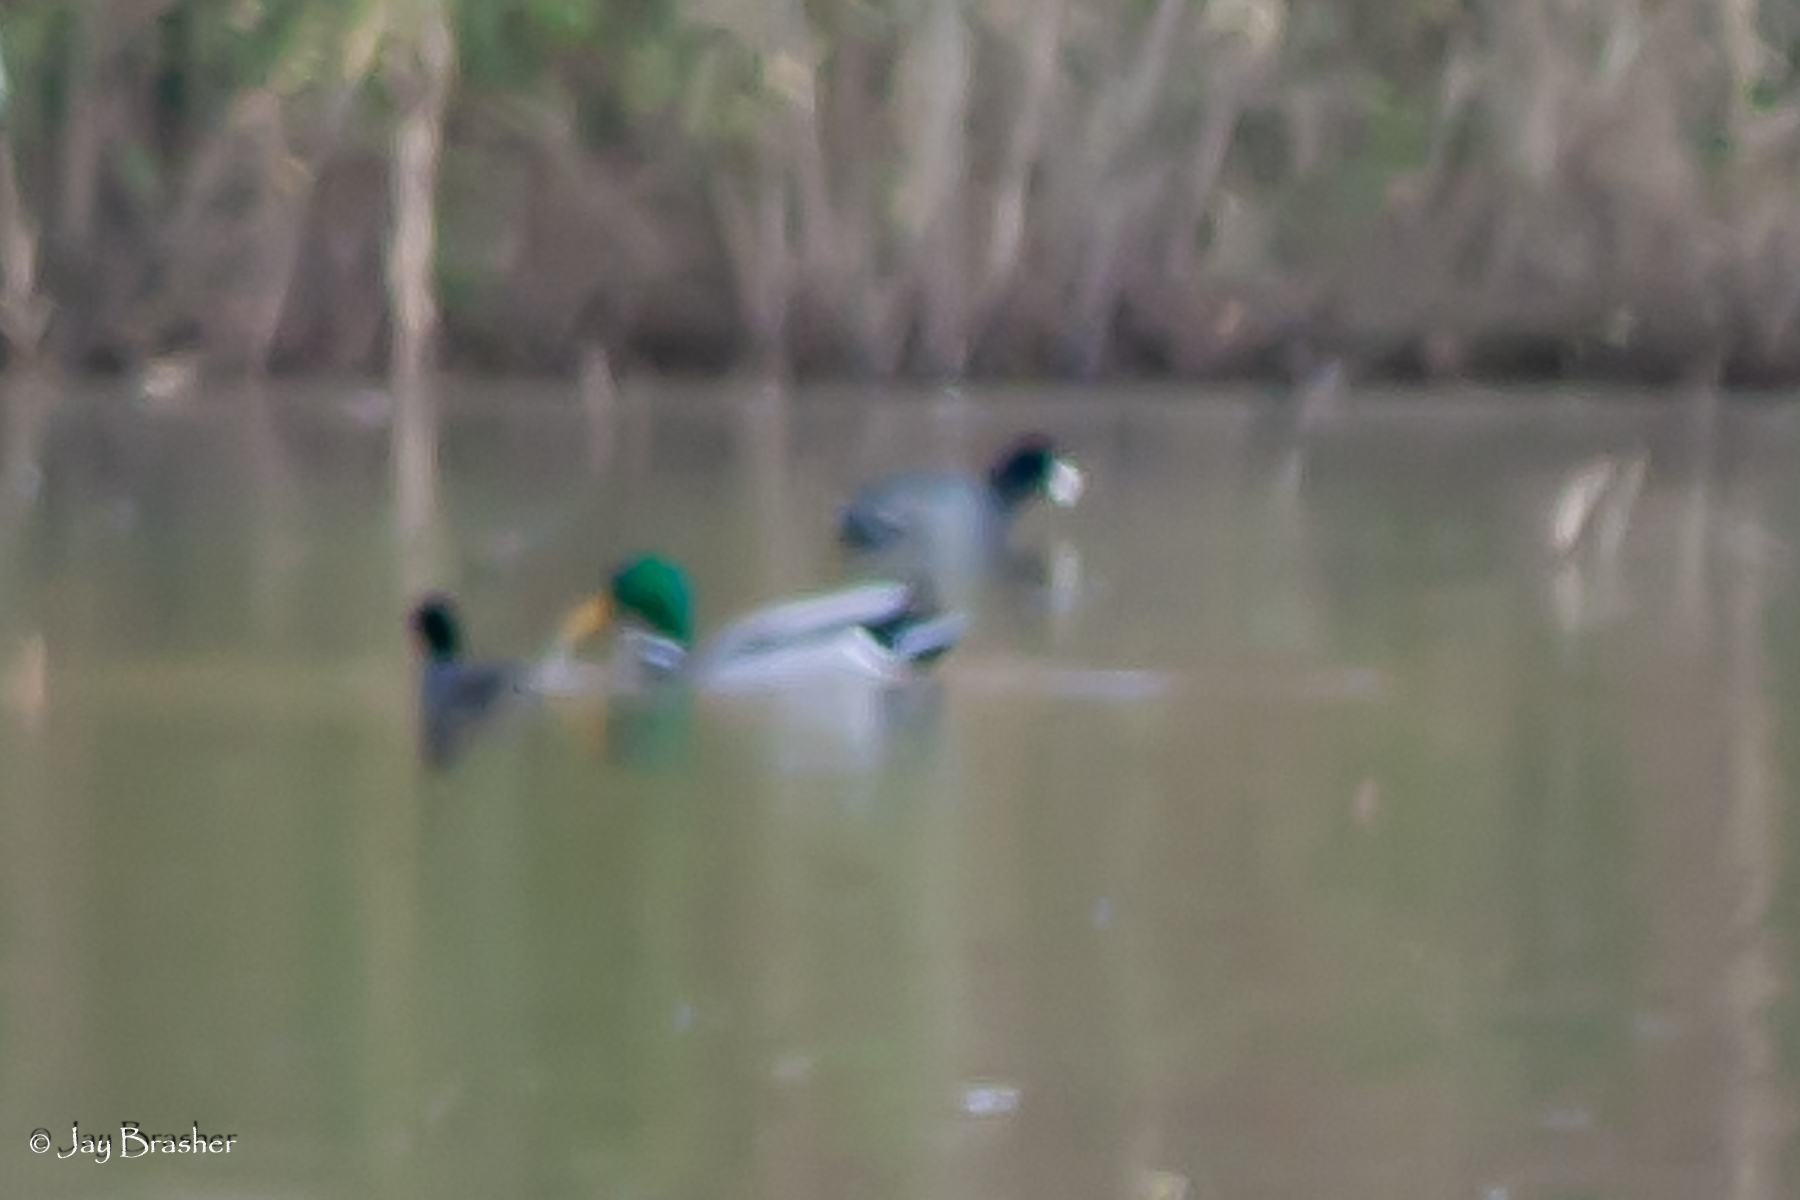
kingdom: Animalia
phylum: Chordata
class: Aves
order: Anseriformes
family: Anatidae
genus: Anas
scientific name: Anas platyrhynchos
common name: Mallard
